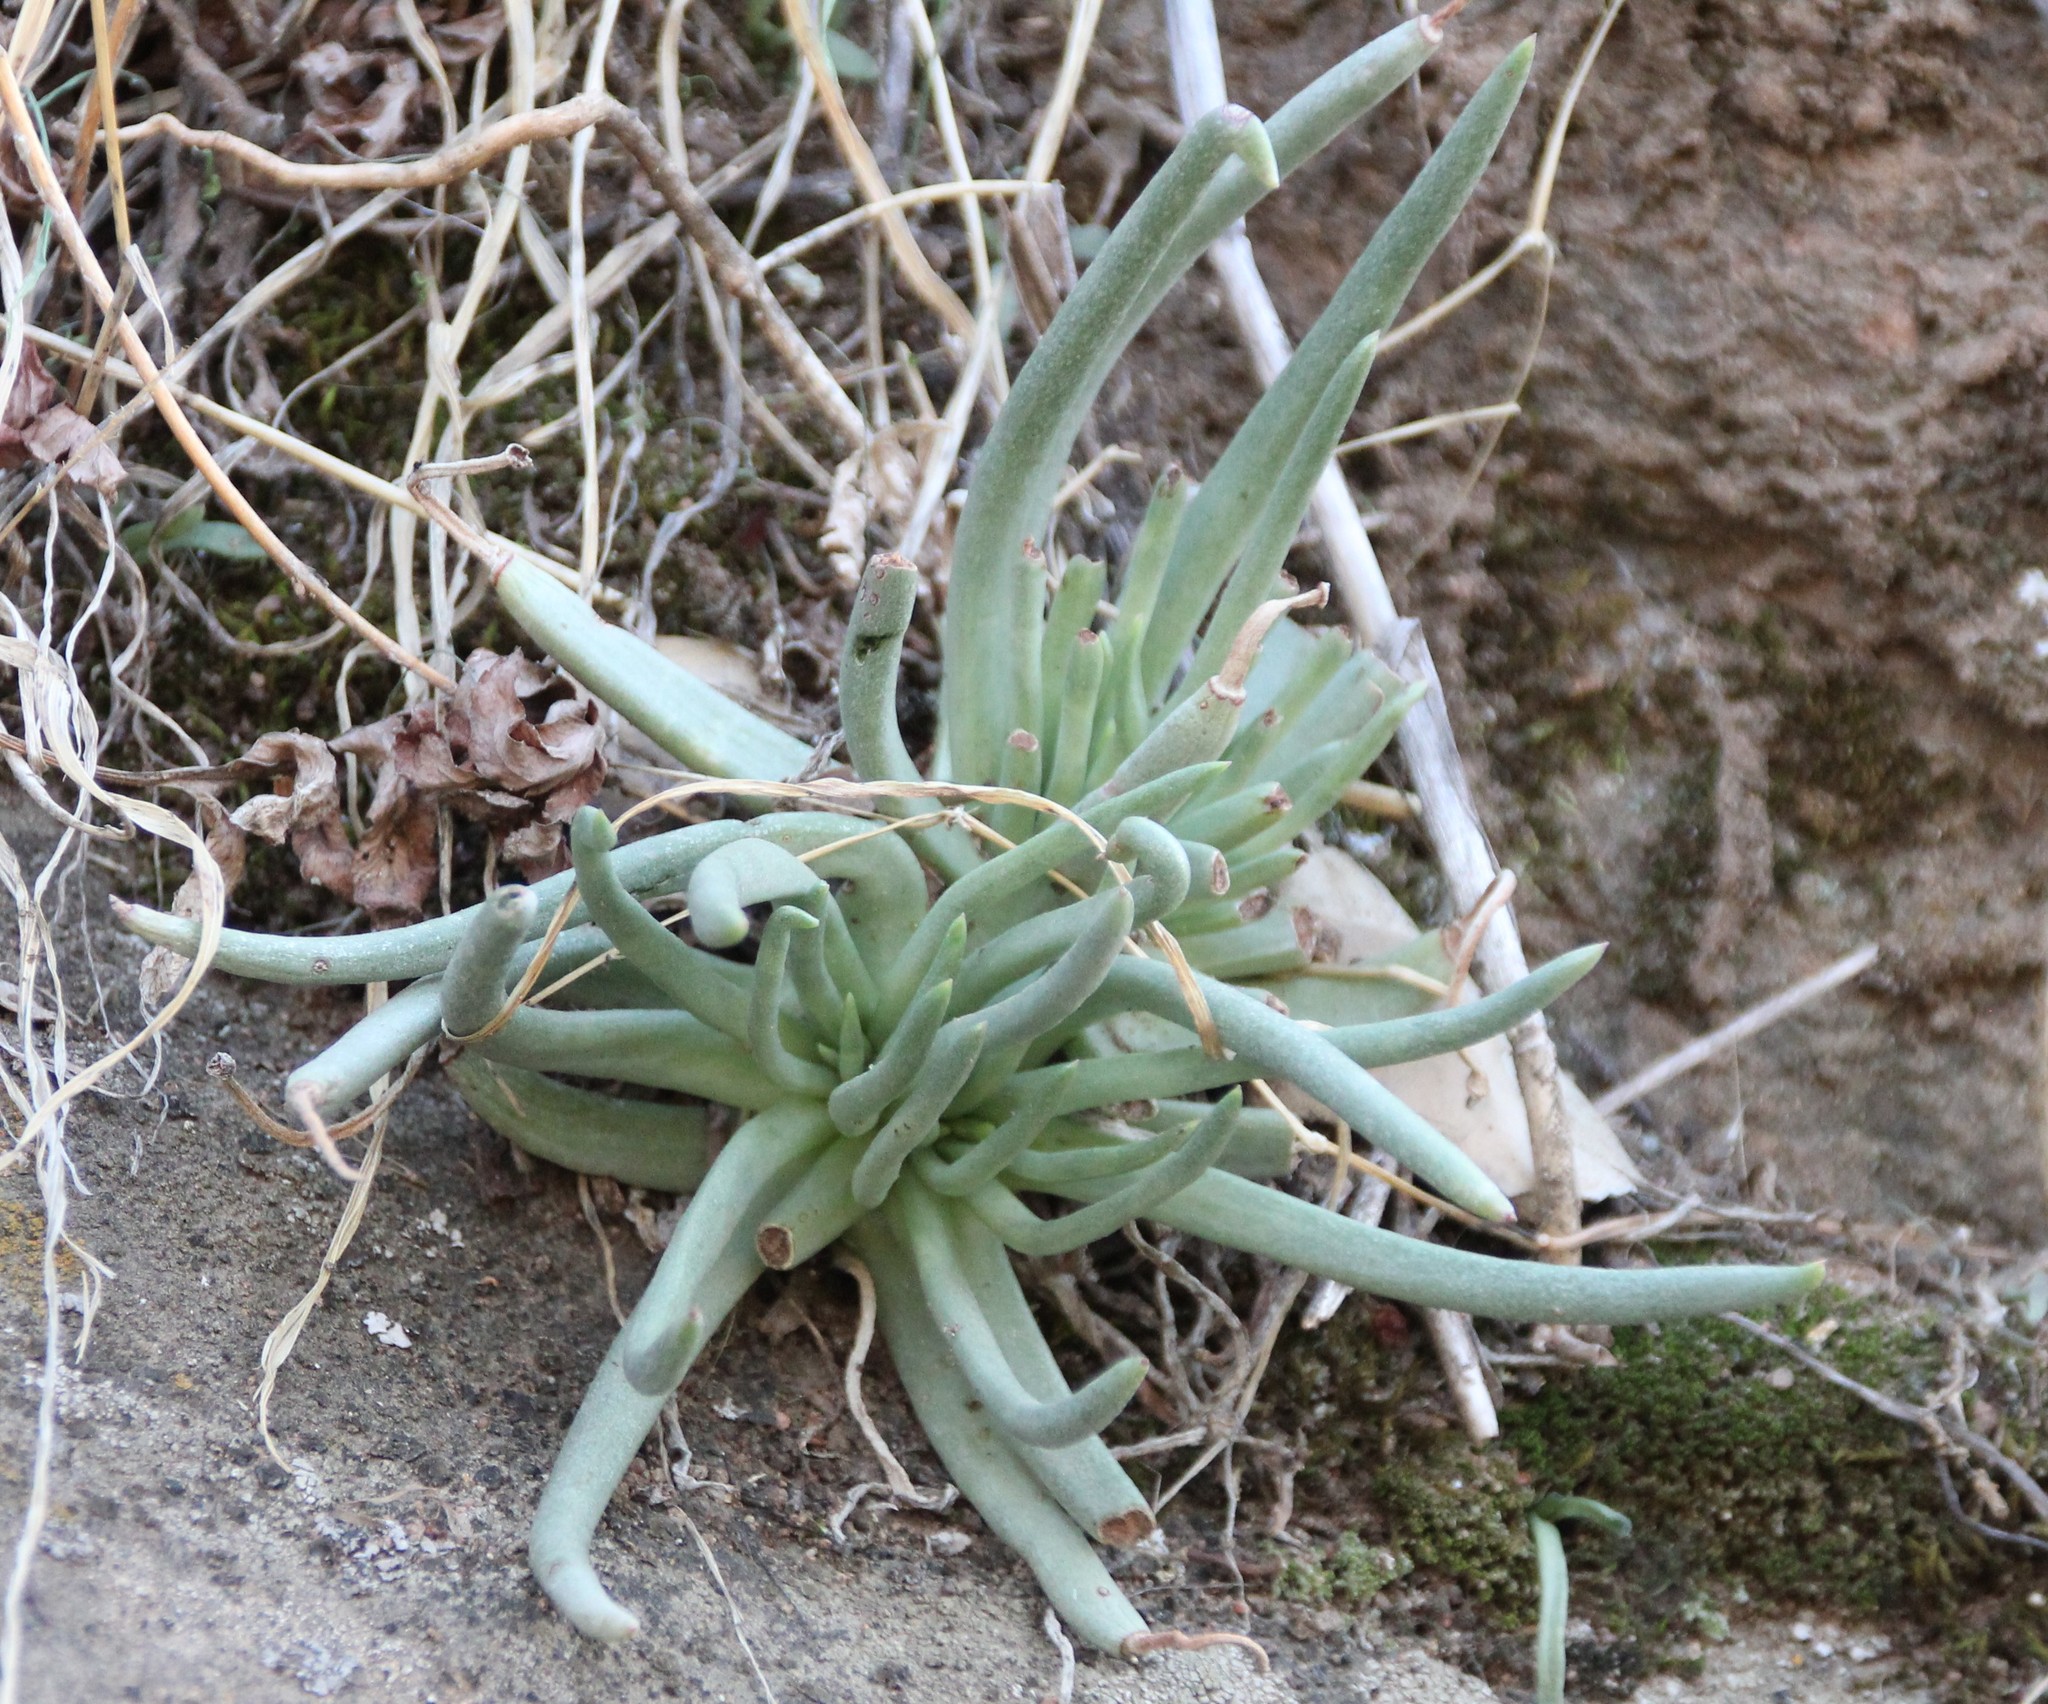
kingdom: Plantae
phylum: Tracheophyta
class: Magnoliopsida
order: Saxifragales
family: Crassulaceae
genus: Dudleya
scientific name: Dudleya edulis
